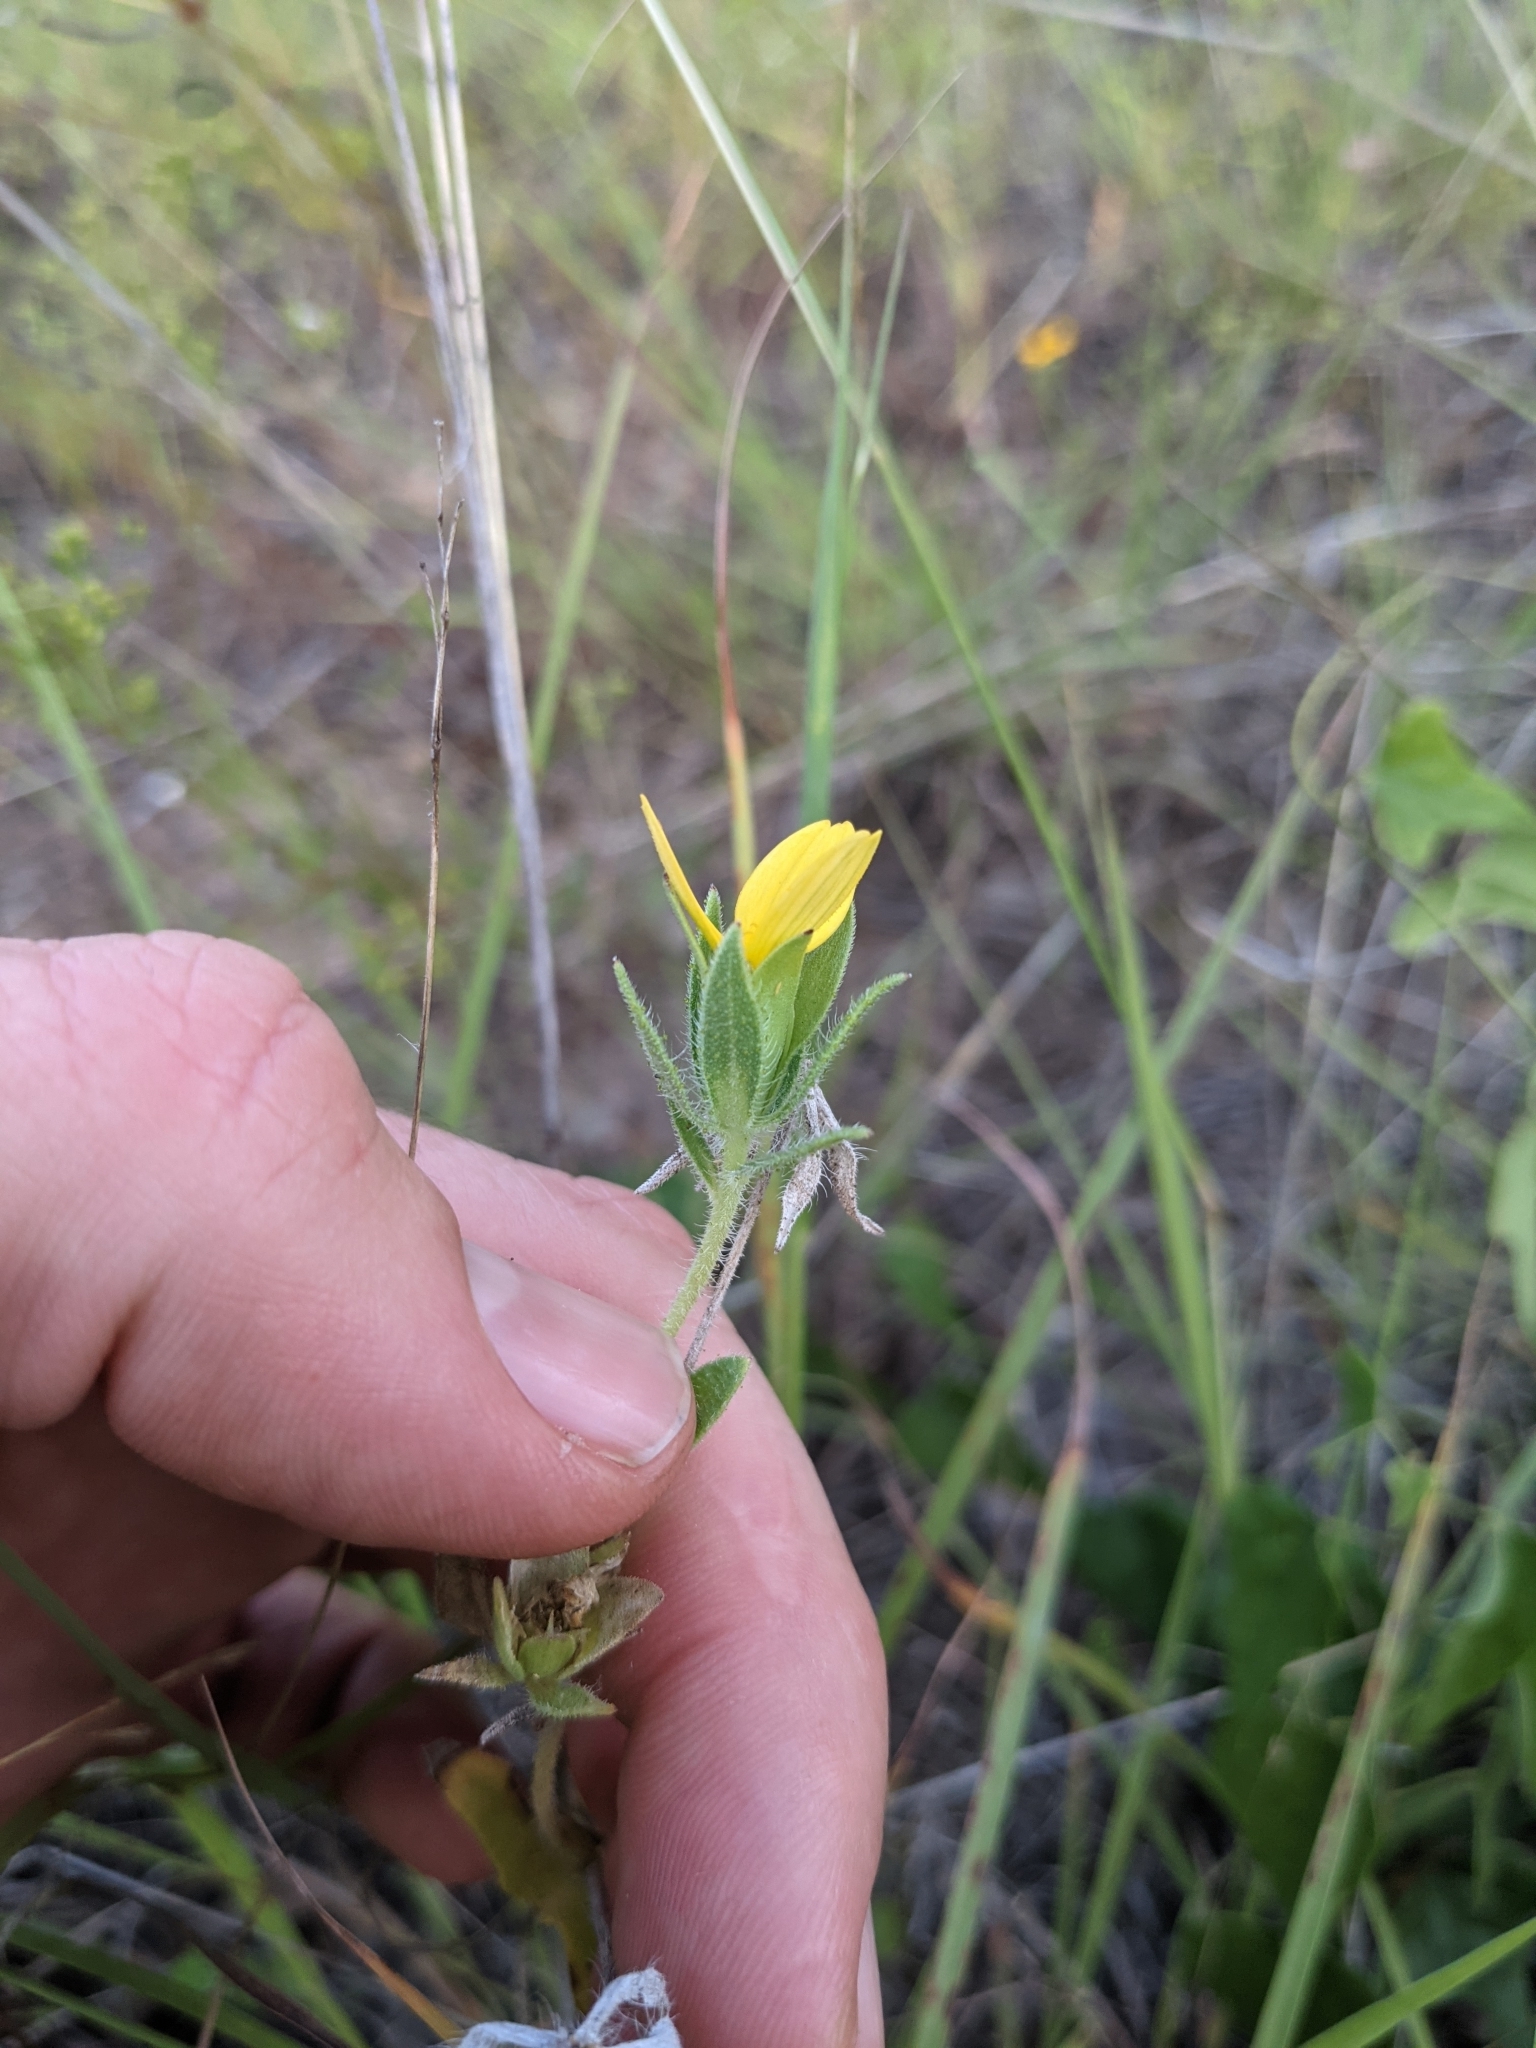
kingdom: Plantae
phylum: Tracheophyta
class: Magnoliopsida
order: Asterales
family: Asteraceae
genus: Lindheimera
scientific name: Lindheimera texana
